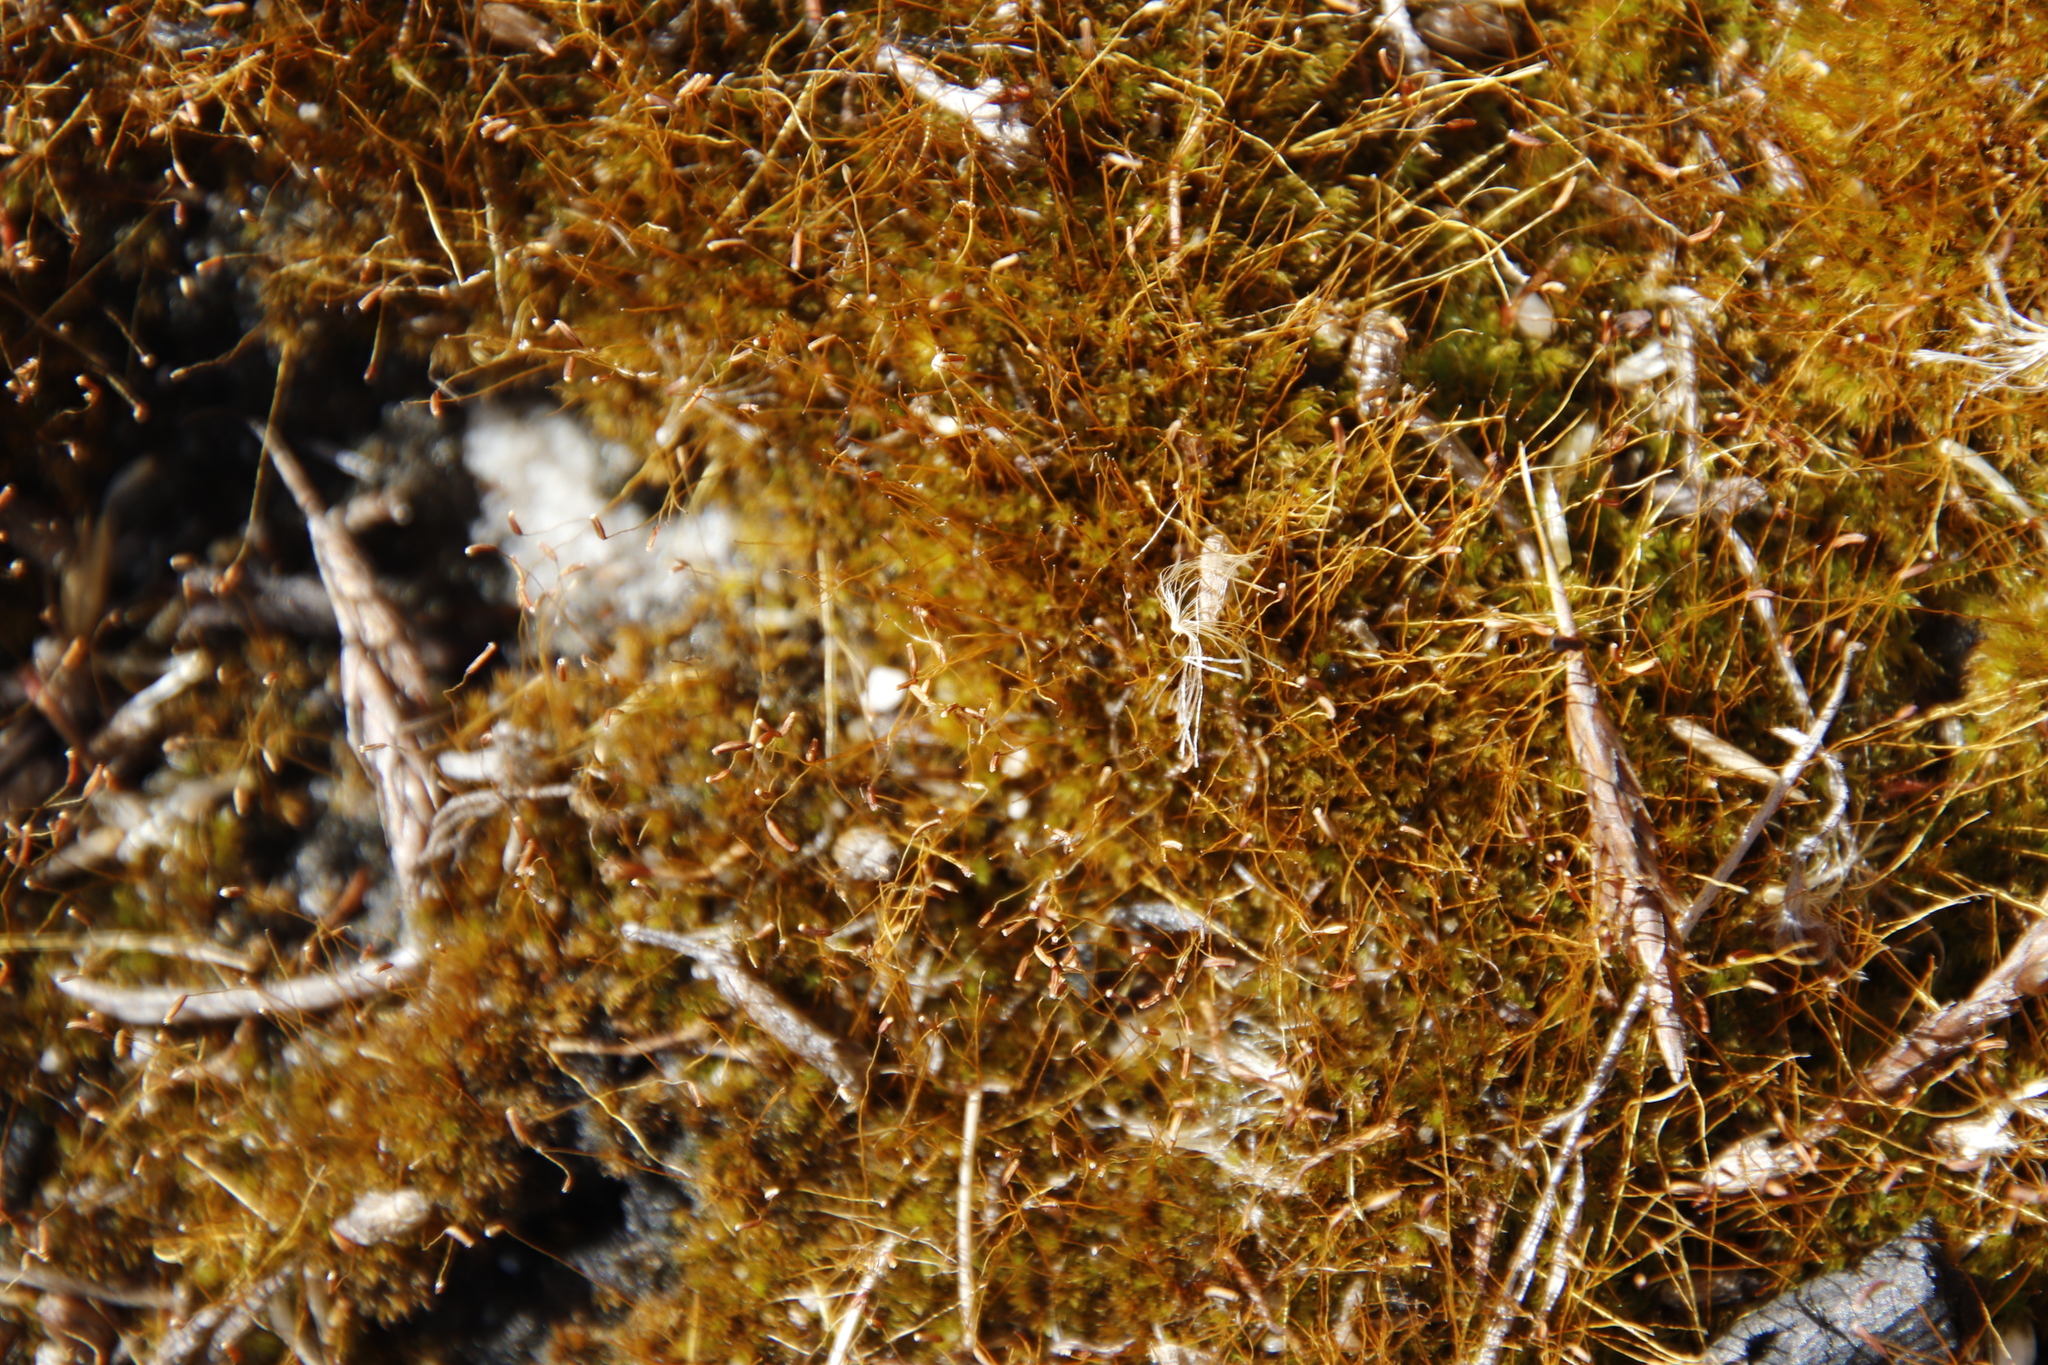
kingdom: Plantae
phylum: Bryophyta
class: Bryopsida
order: Dicranales
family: Ditrichaceae
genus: Ceratodon
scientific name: Ceratodon purpureus
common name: Redshank
